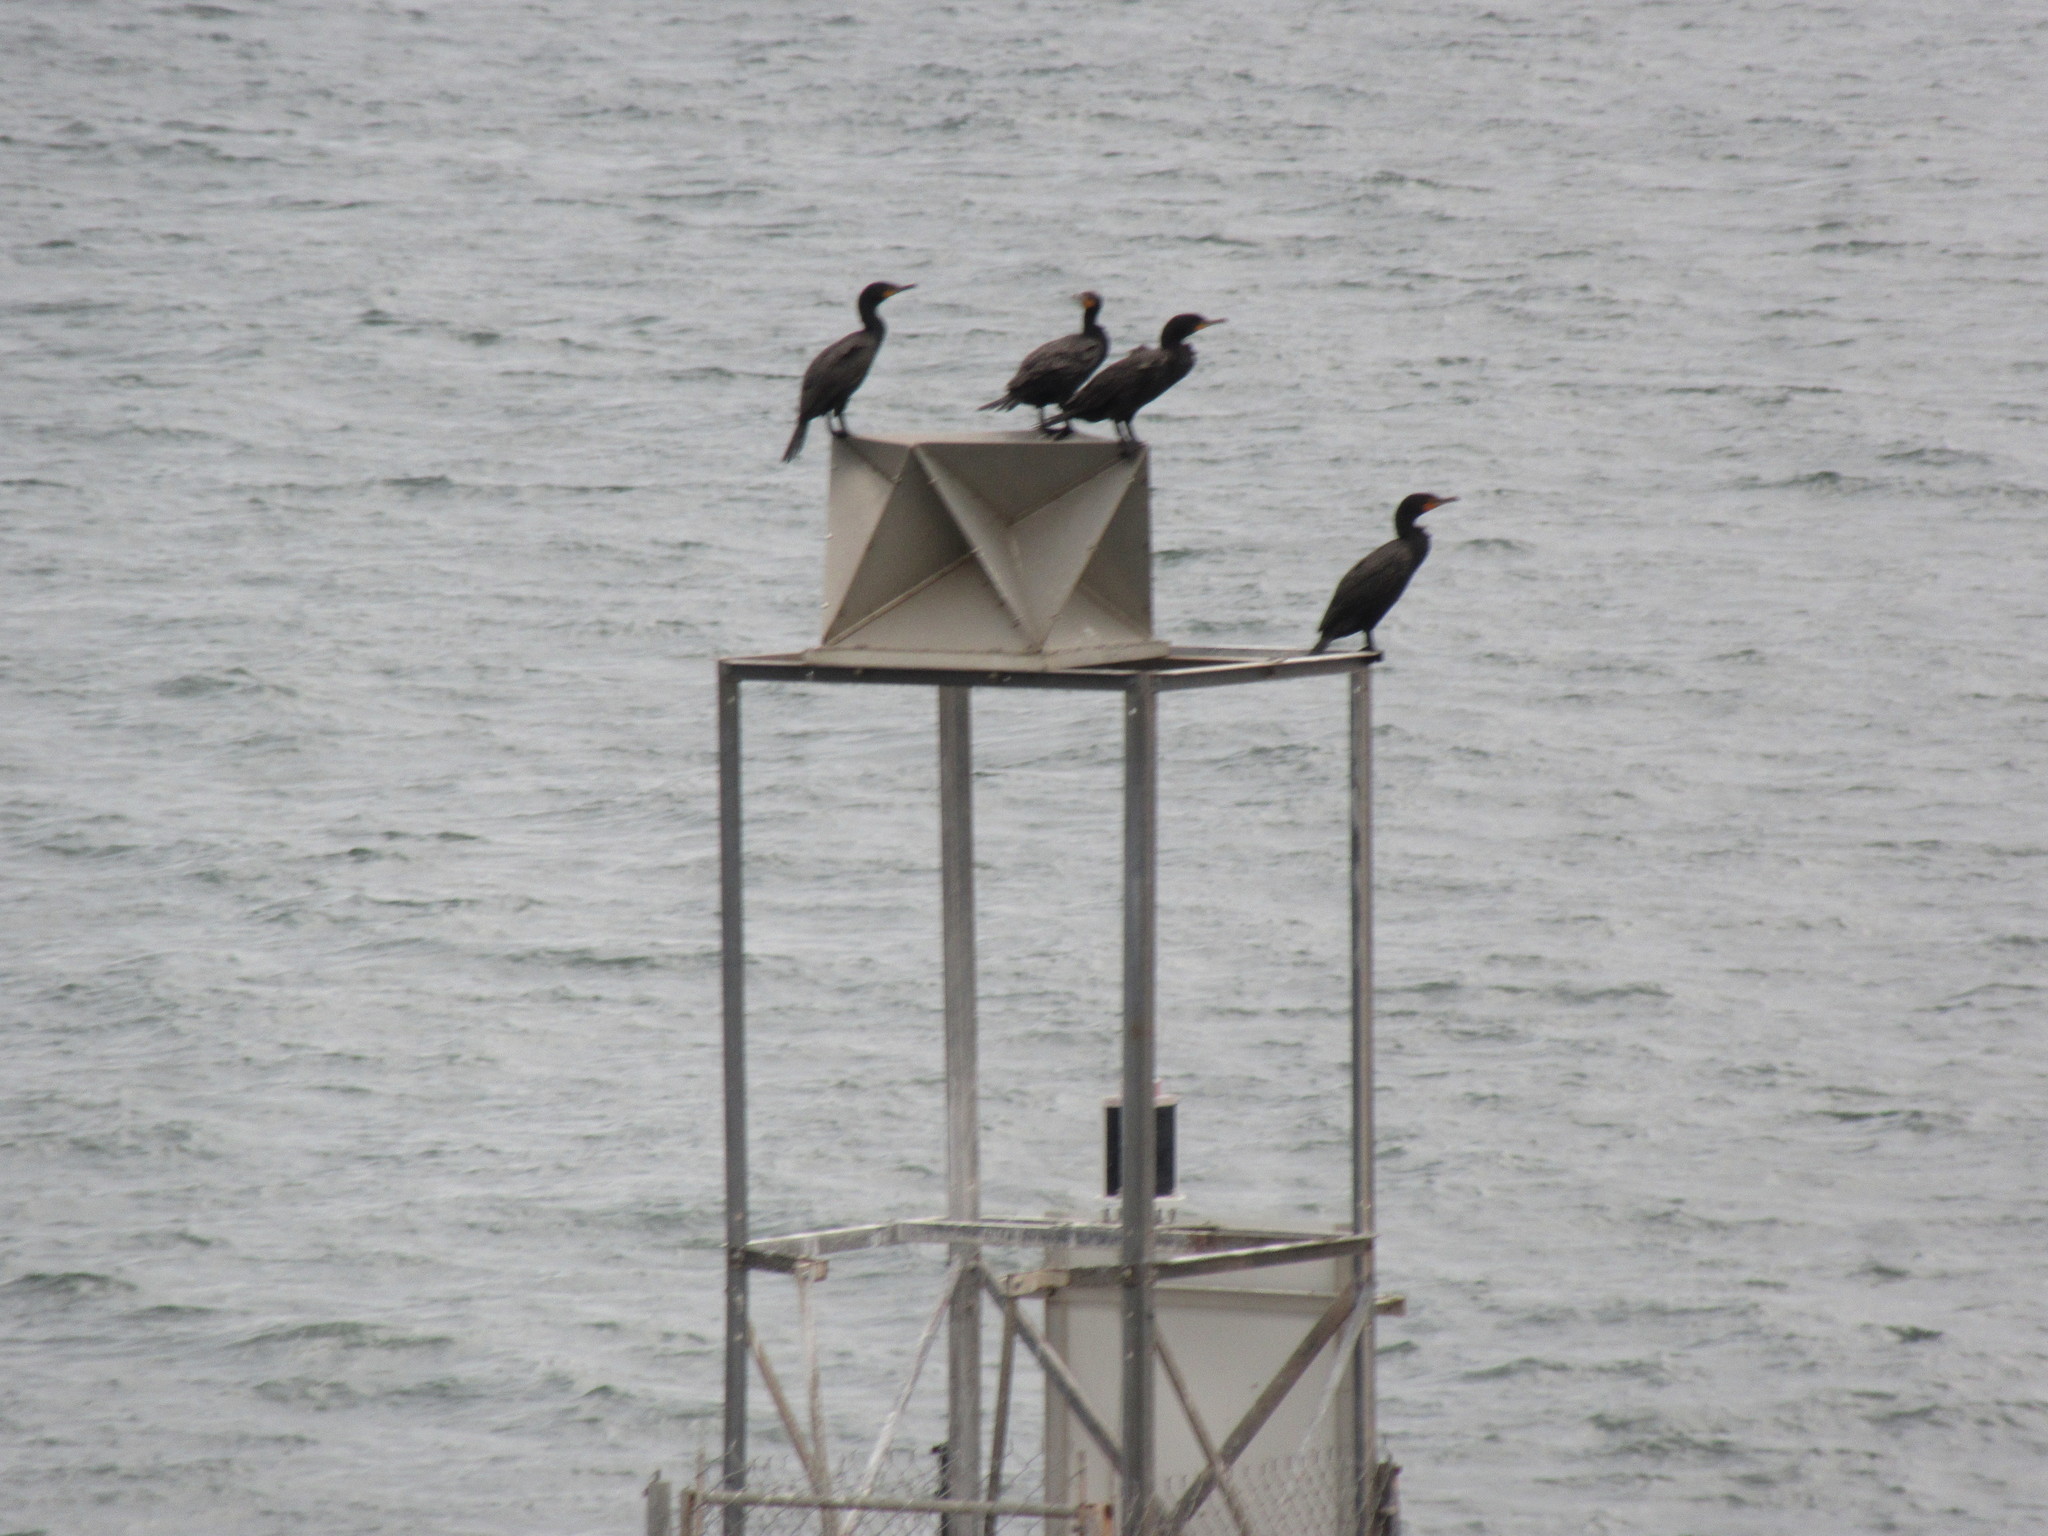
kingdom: Animalia
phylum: Chordata
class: Aves
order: Suliformes
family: Phalacrocoracidae
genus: Phalacrocorax
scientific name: Phalacrocorax auritus
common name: Double-crested cormorant
